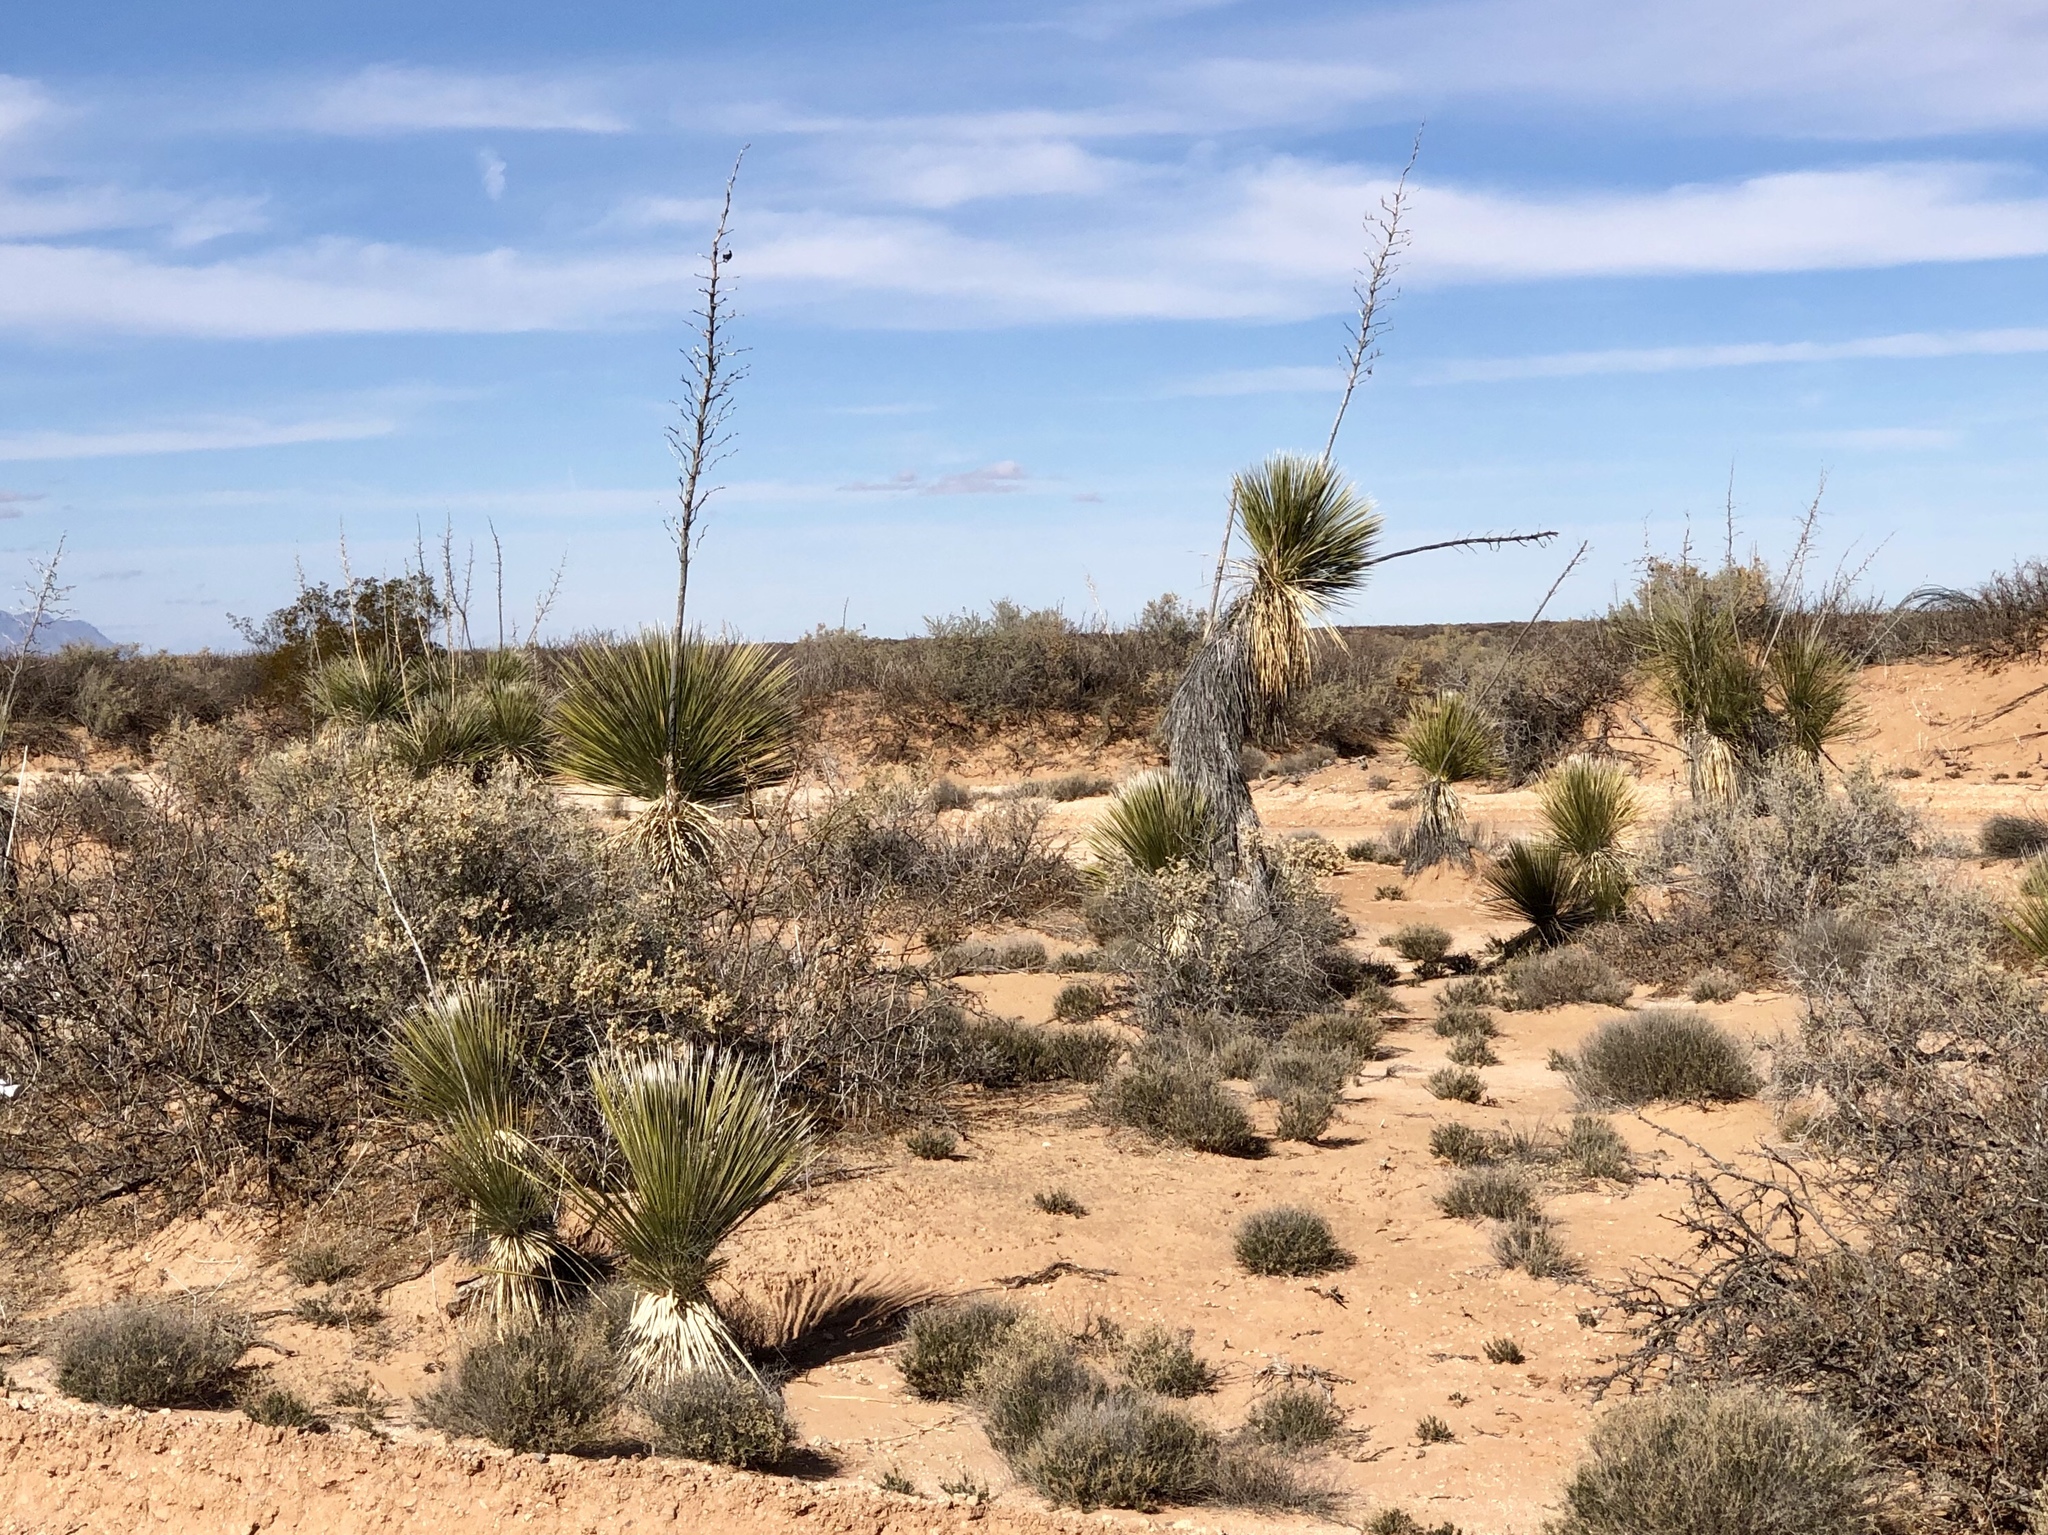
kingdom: Plantae
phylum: Tracheophyta
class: Liliopsida
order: Asparagales
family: Asparagaceae
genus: Yucca
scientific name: Yucca elata
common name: Palmella
